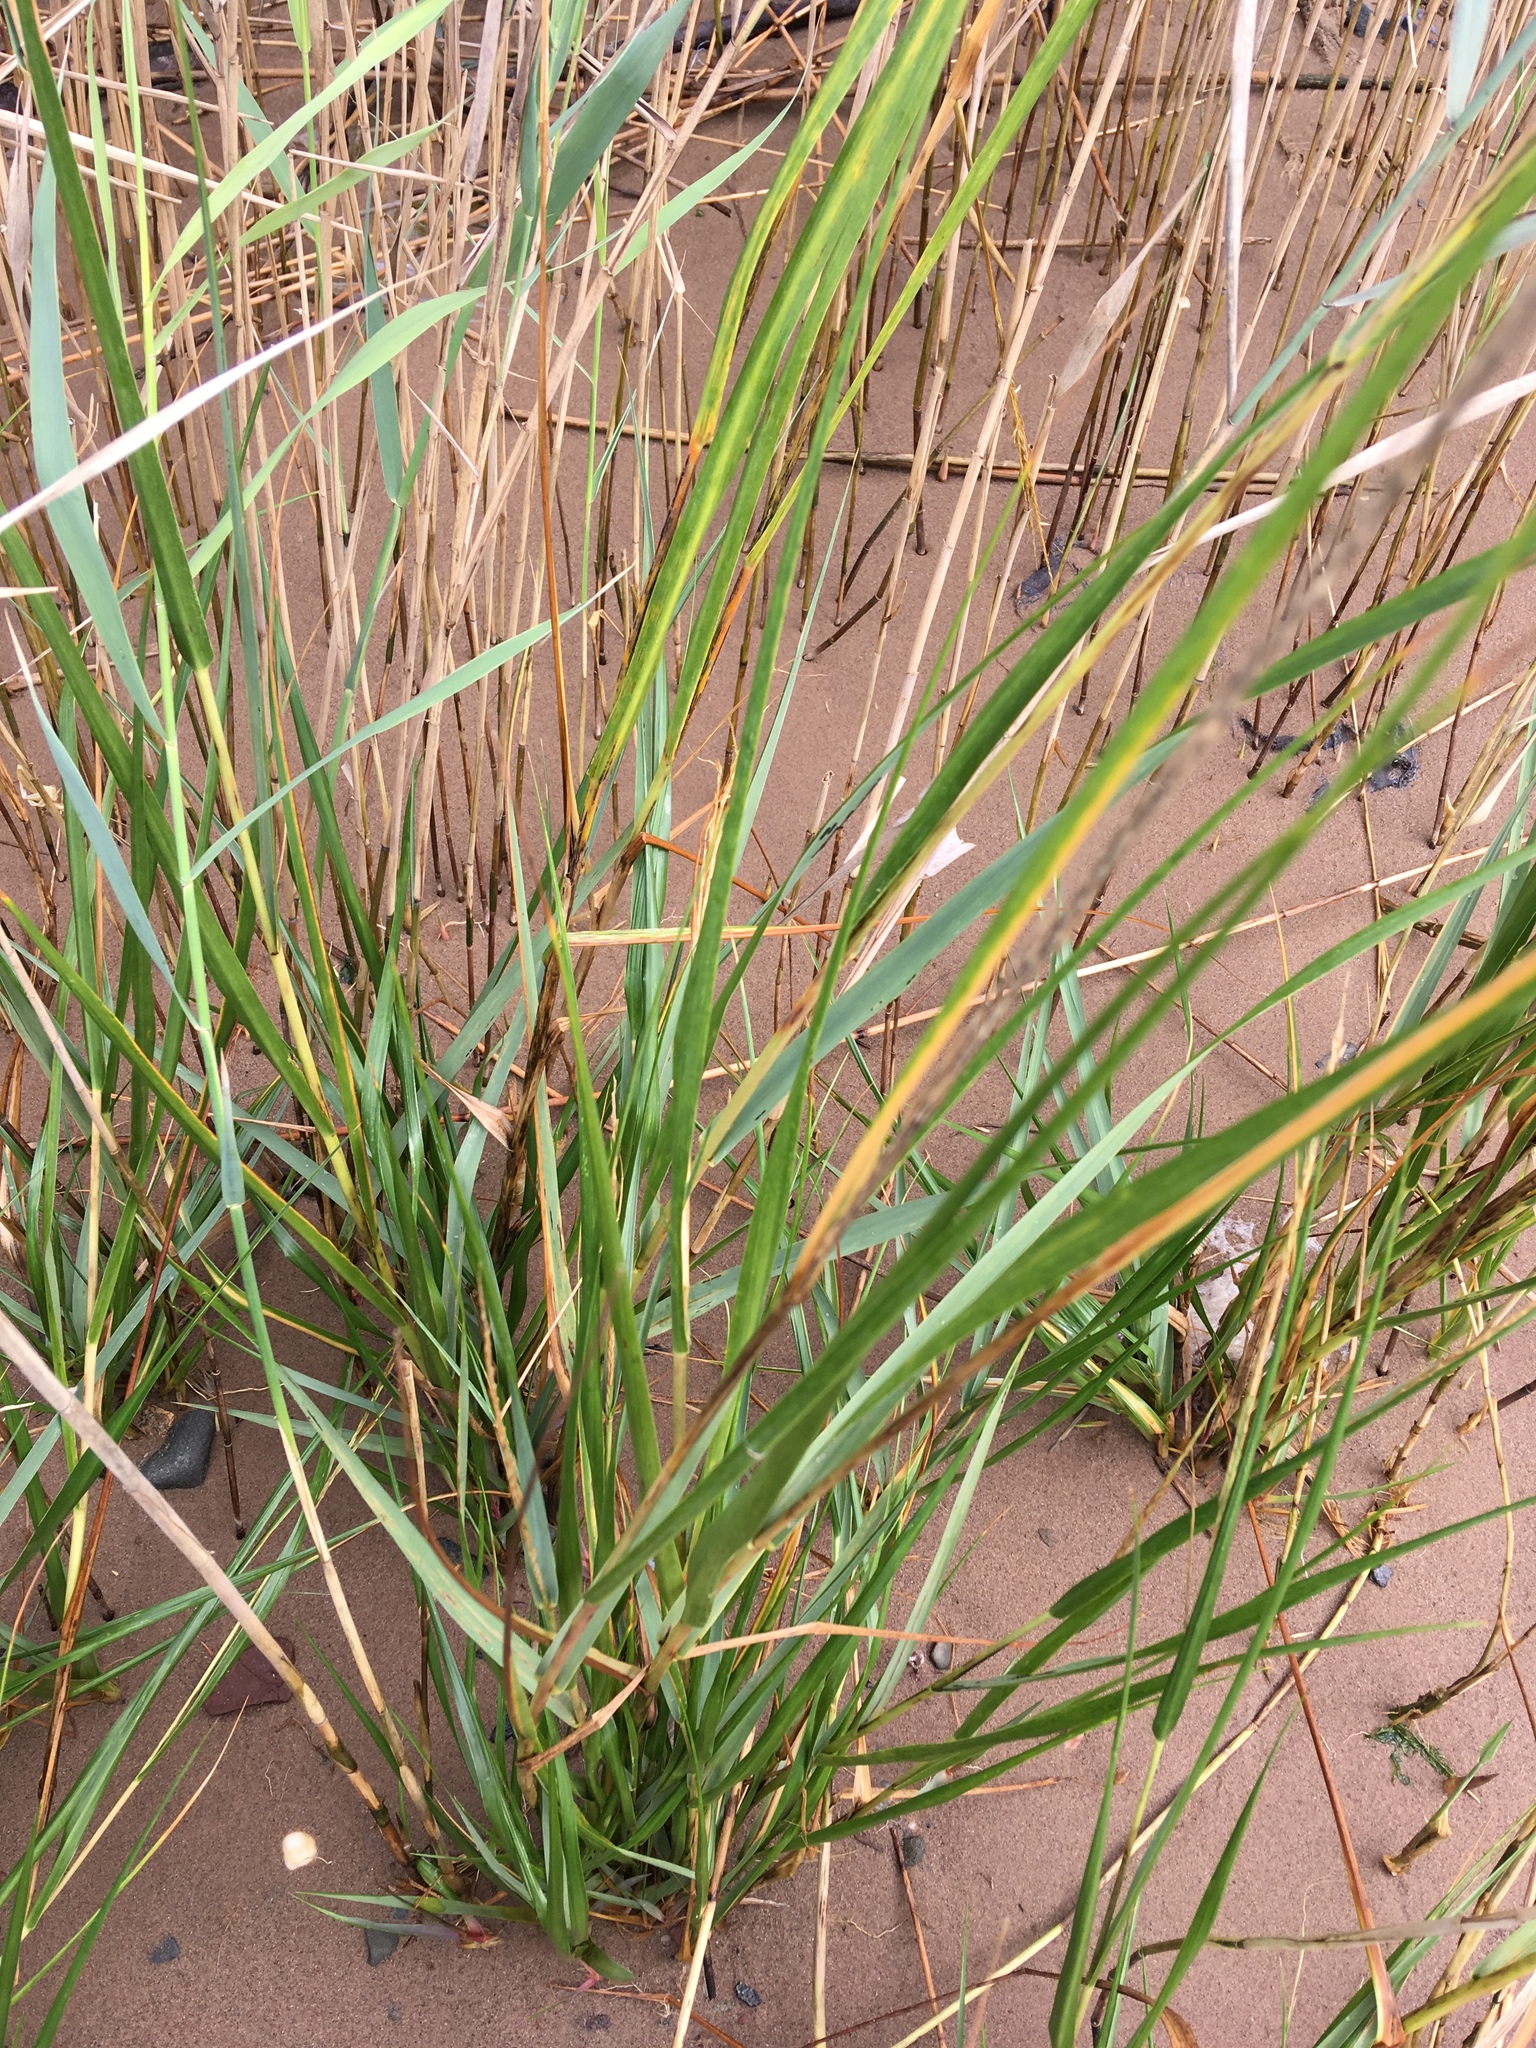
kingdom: Plantae
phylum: Tracheophyta
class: Liliopsida
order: Poales
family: Poaceae
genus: Sporobolus
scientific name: Sporobolus alterniflorus
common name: Atlantic cordgrass
